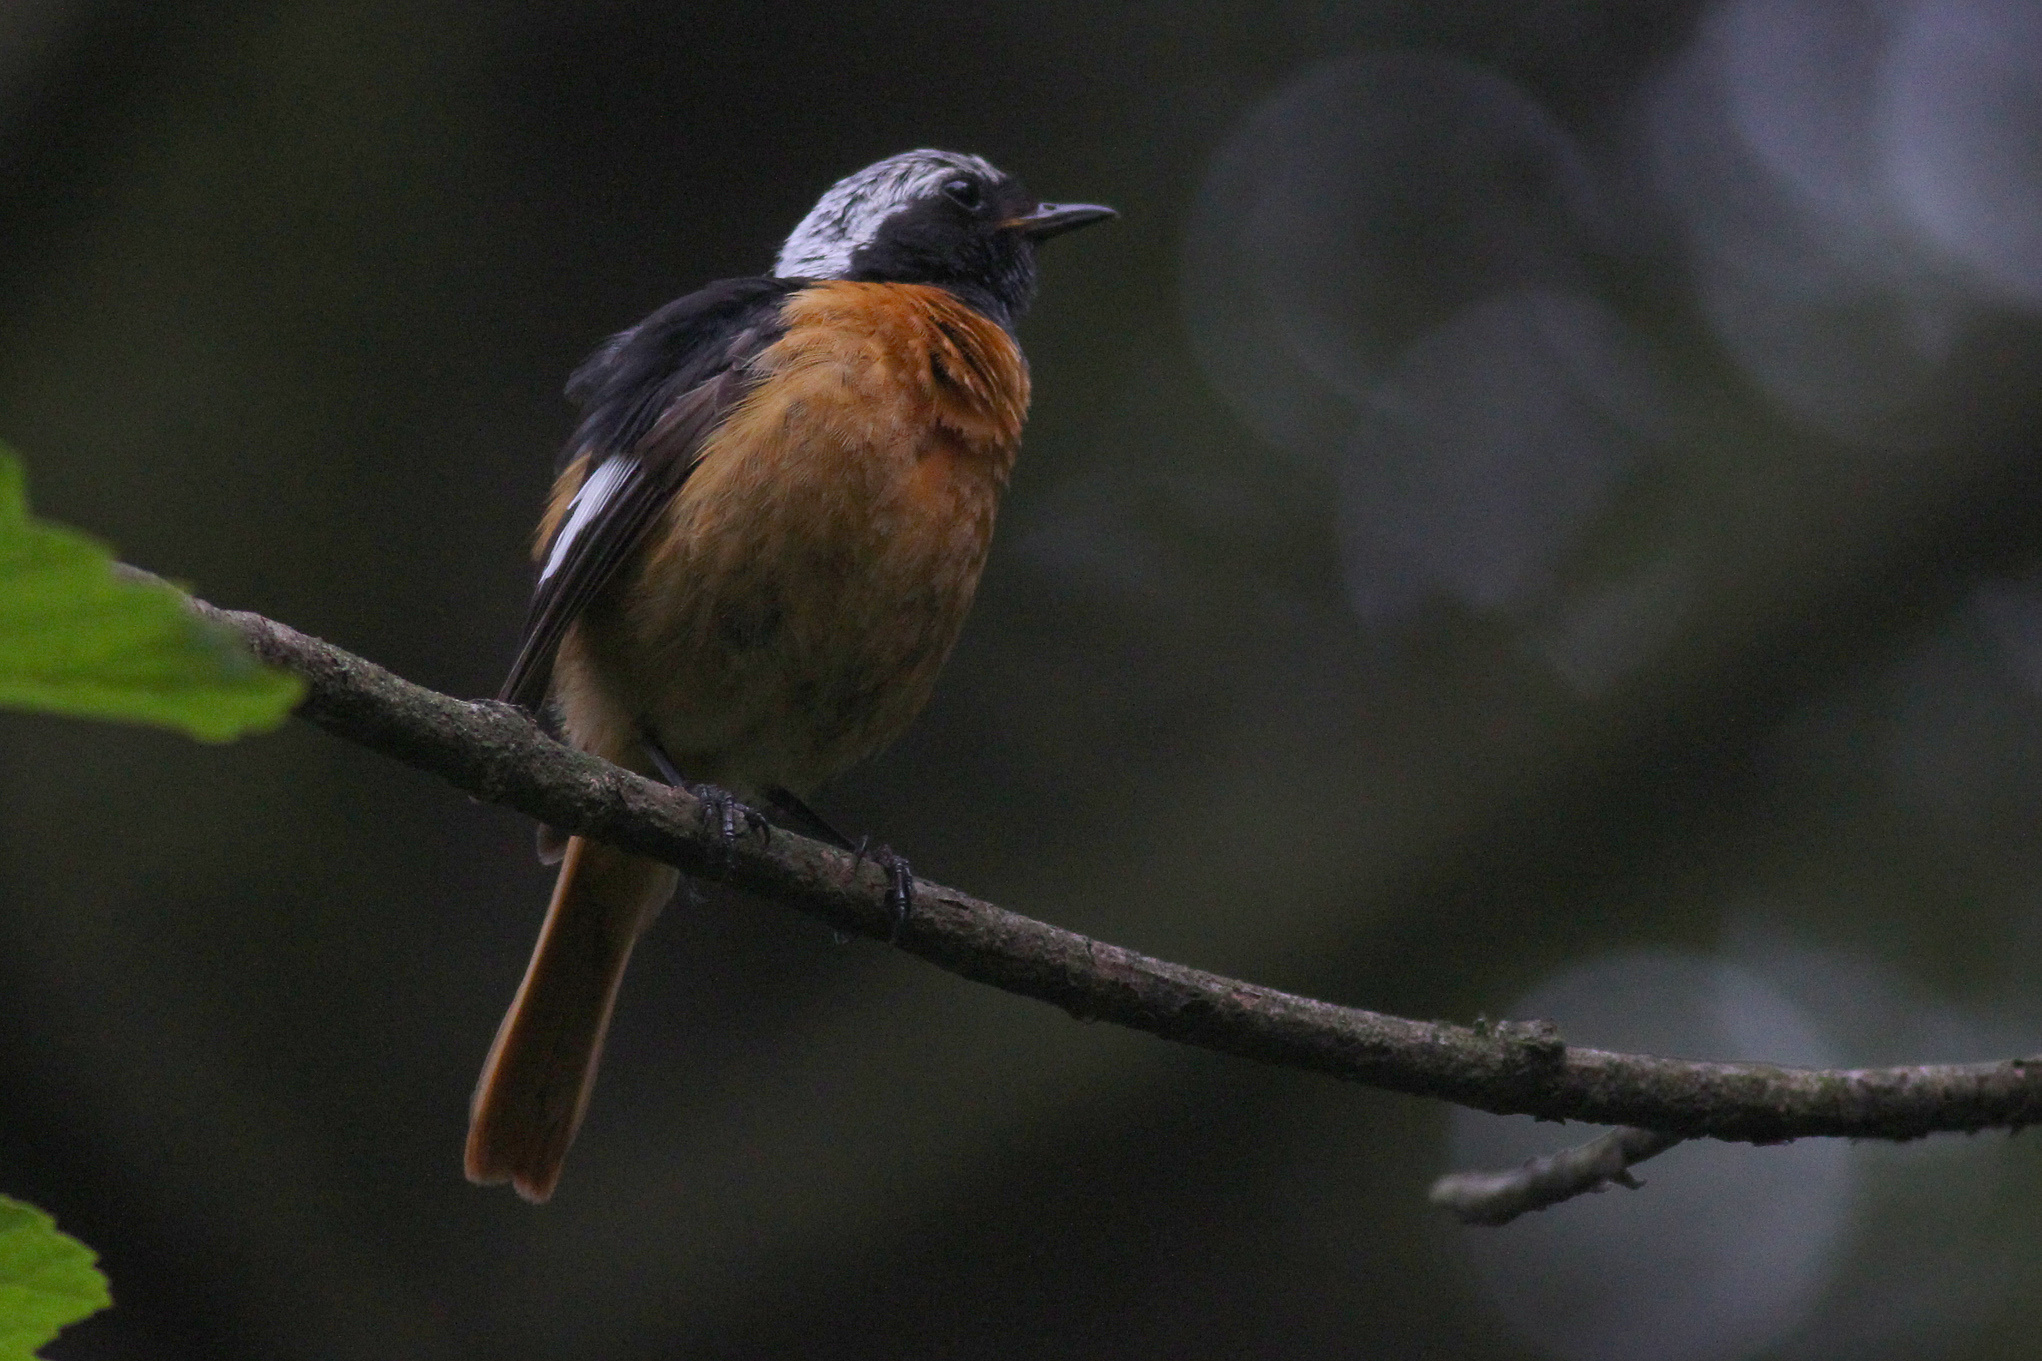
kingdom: Animalia
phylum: Chordata
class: Aves
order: Passeriformes
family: Muscicapidae
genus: Phoenicurus
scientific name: Phoenicurus auroreus
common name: Daurian redstart
